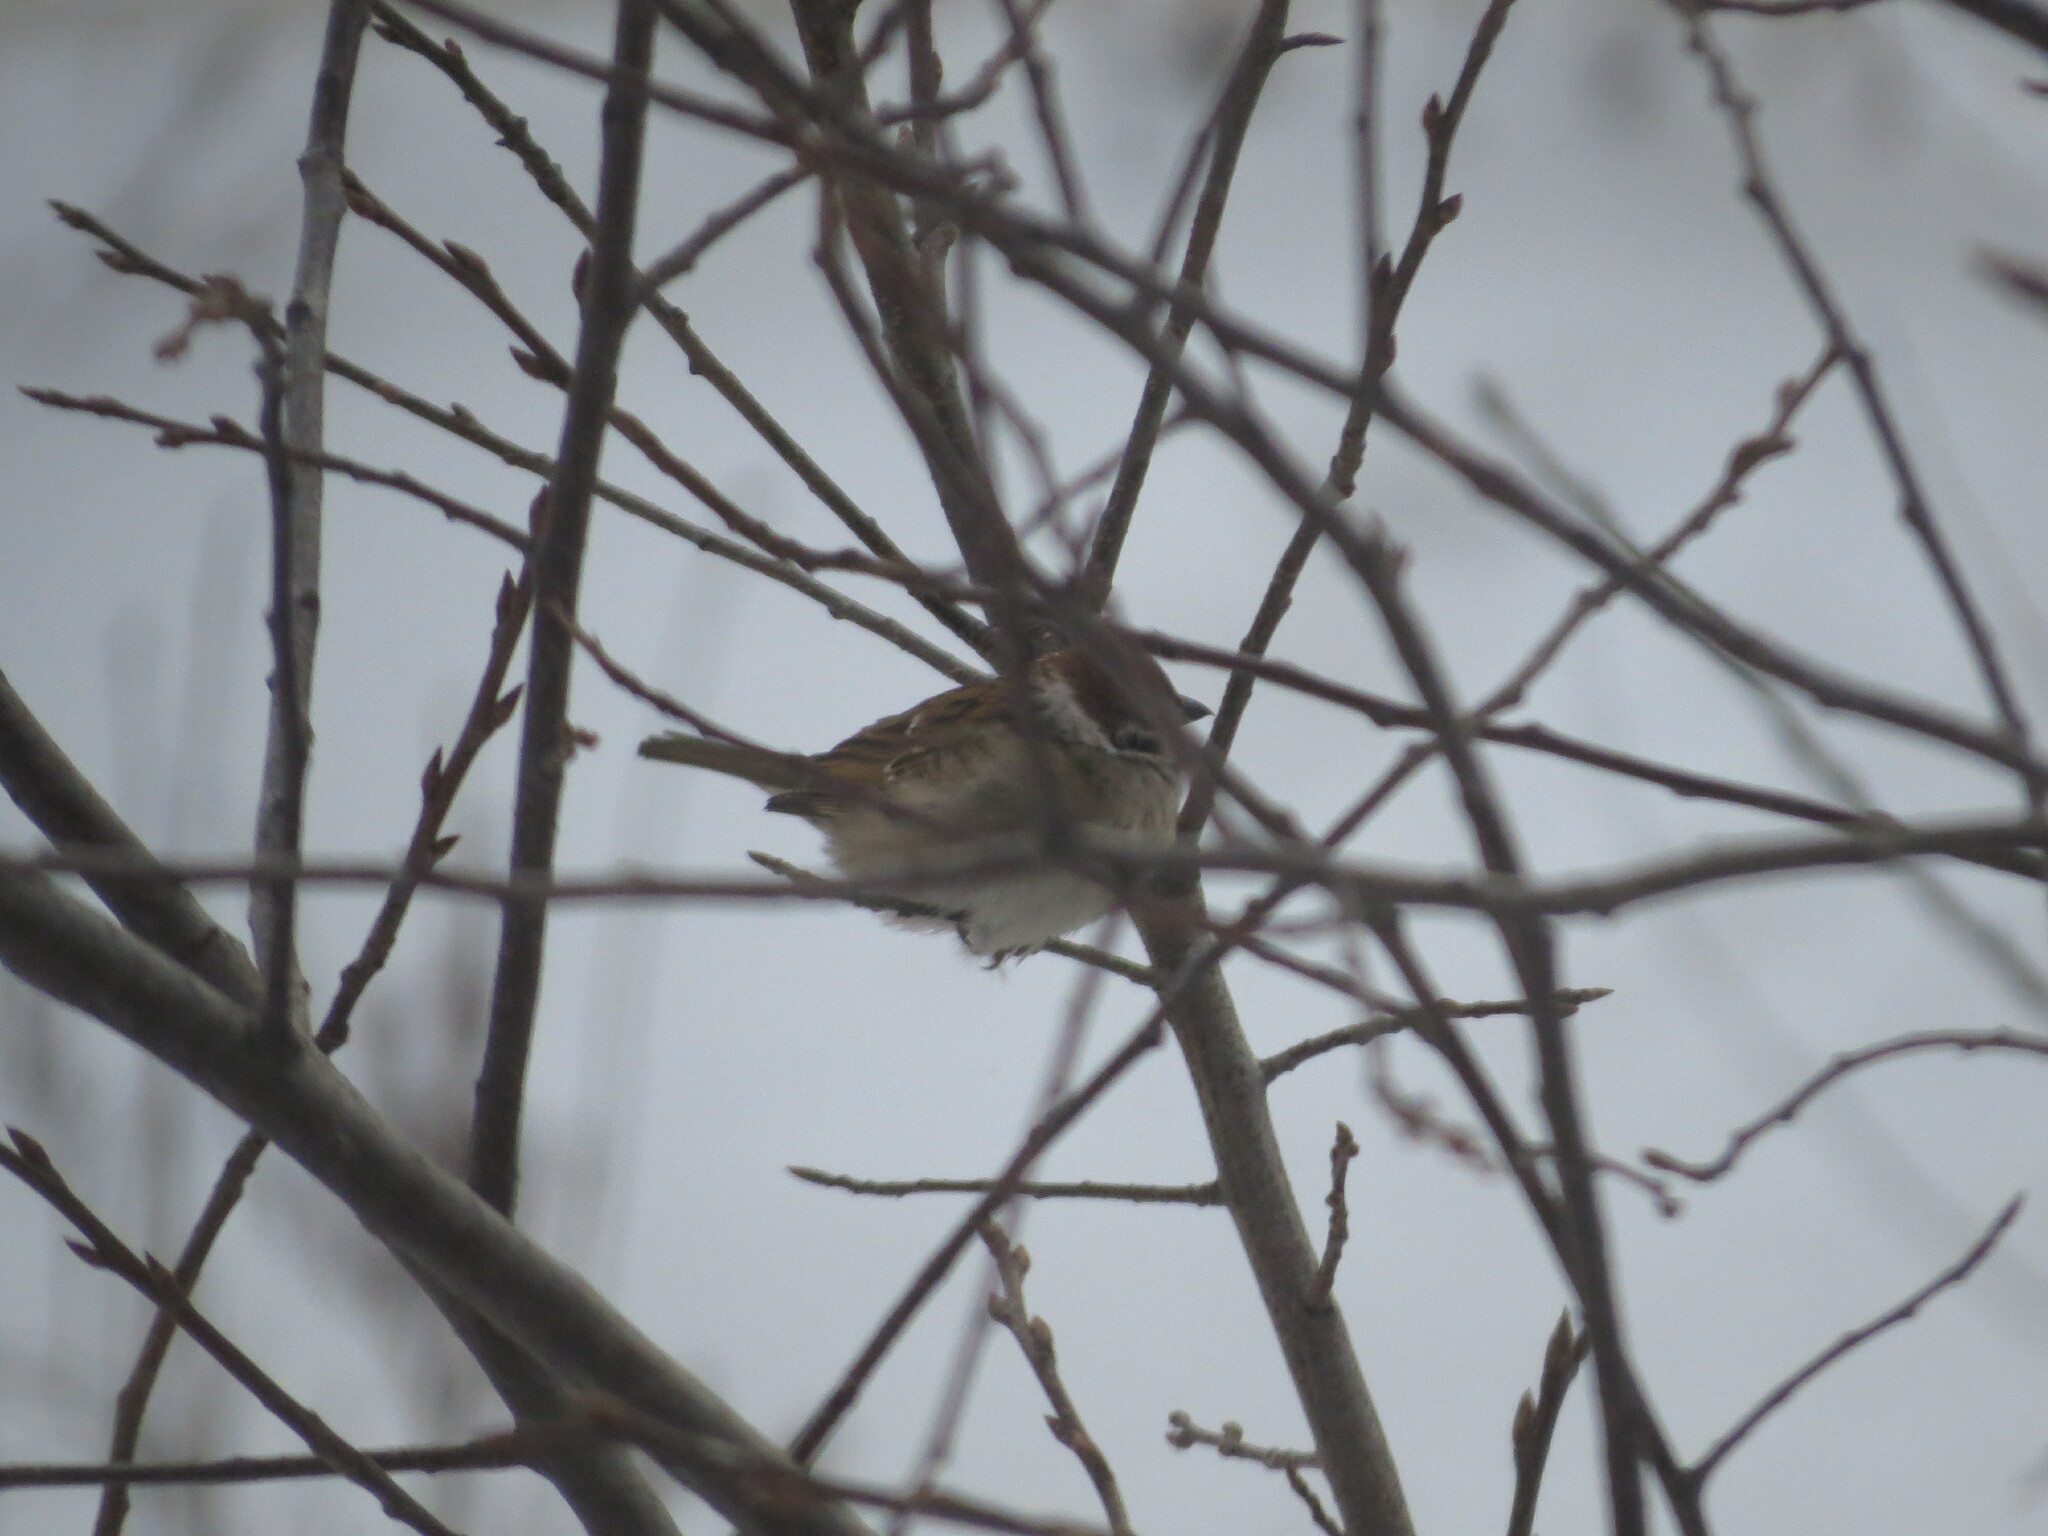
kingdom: Animalia
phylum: Chordata
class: Aves
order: Passeriformes
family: Passeridae
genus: Passer
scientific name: Passer montanus
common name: Eurasian tree sparrow
